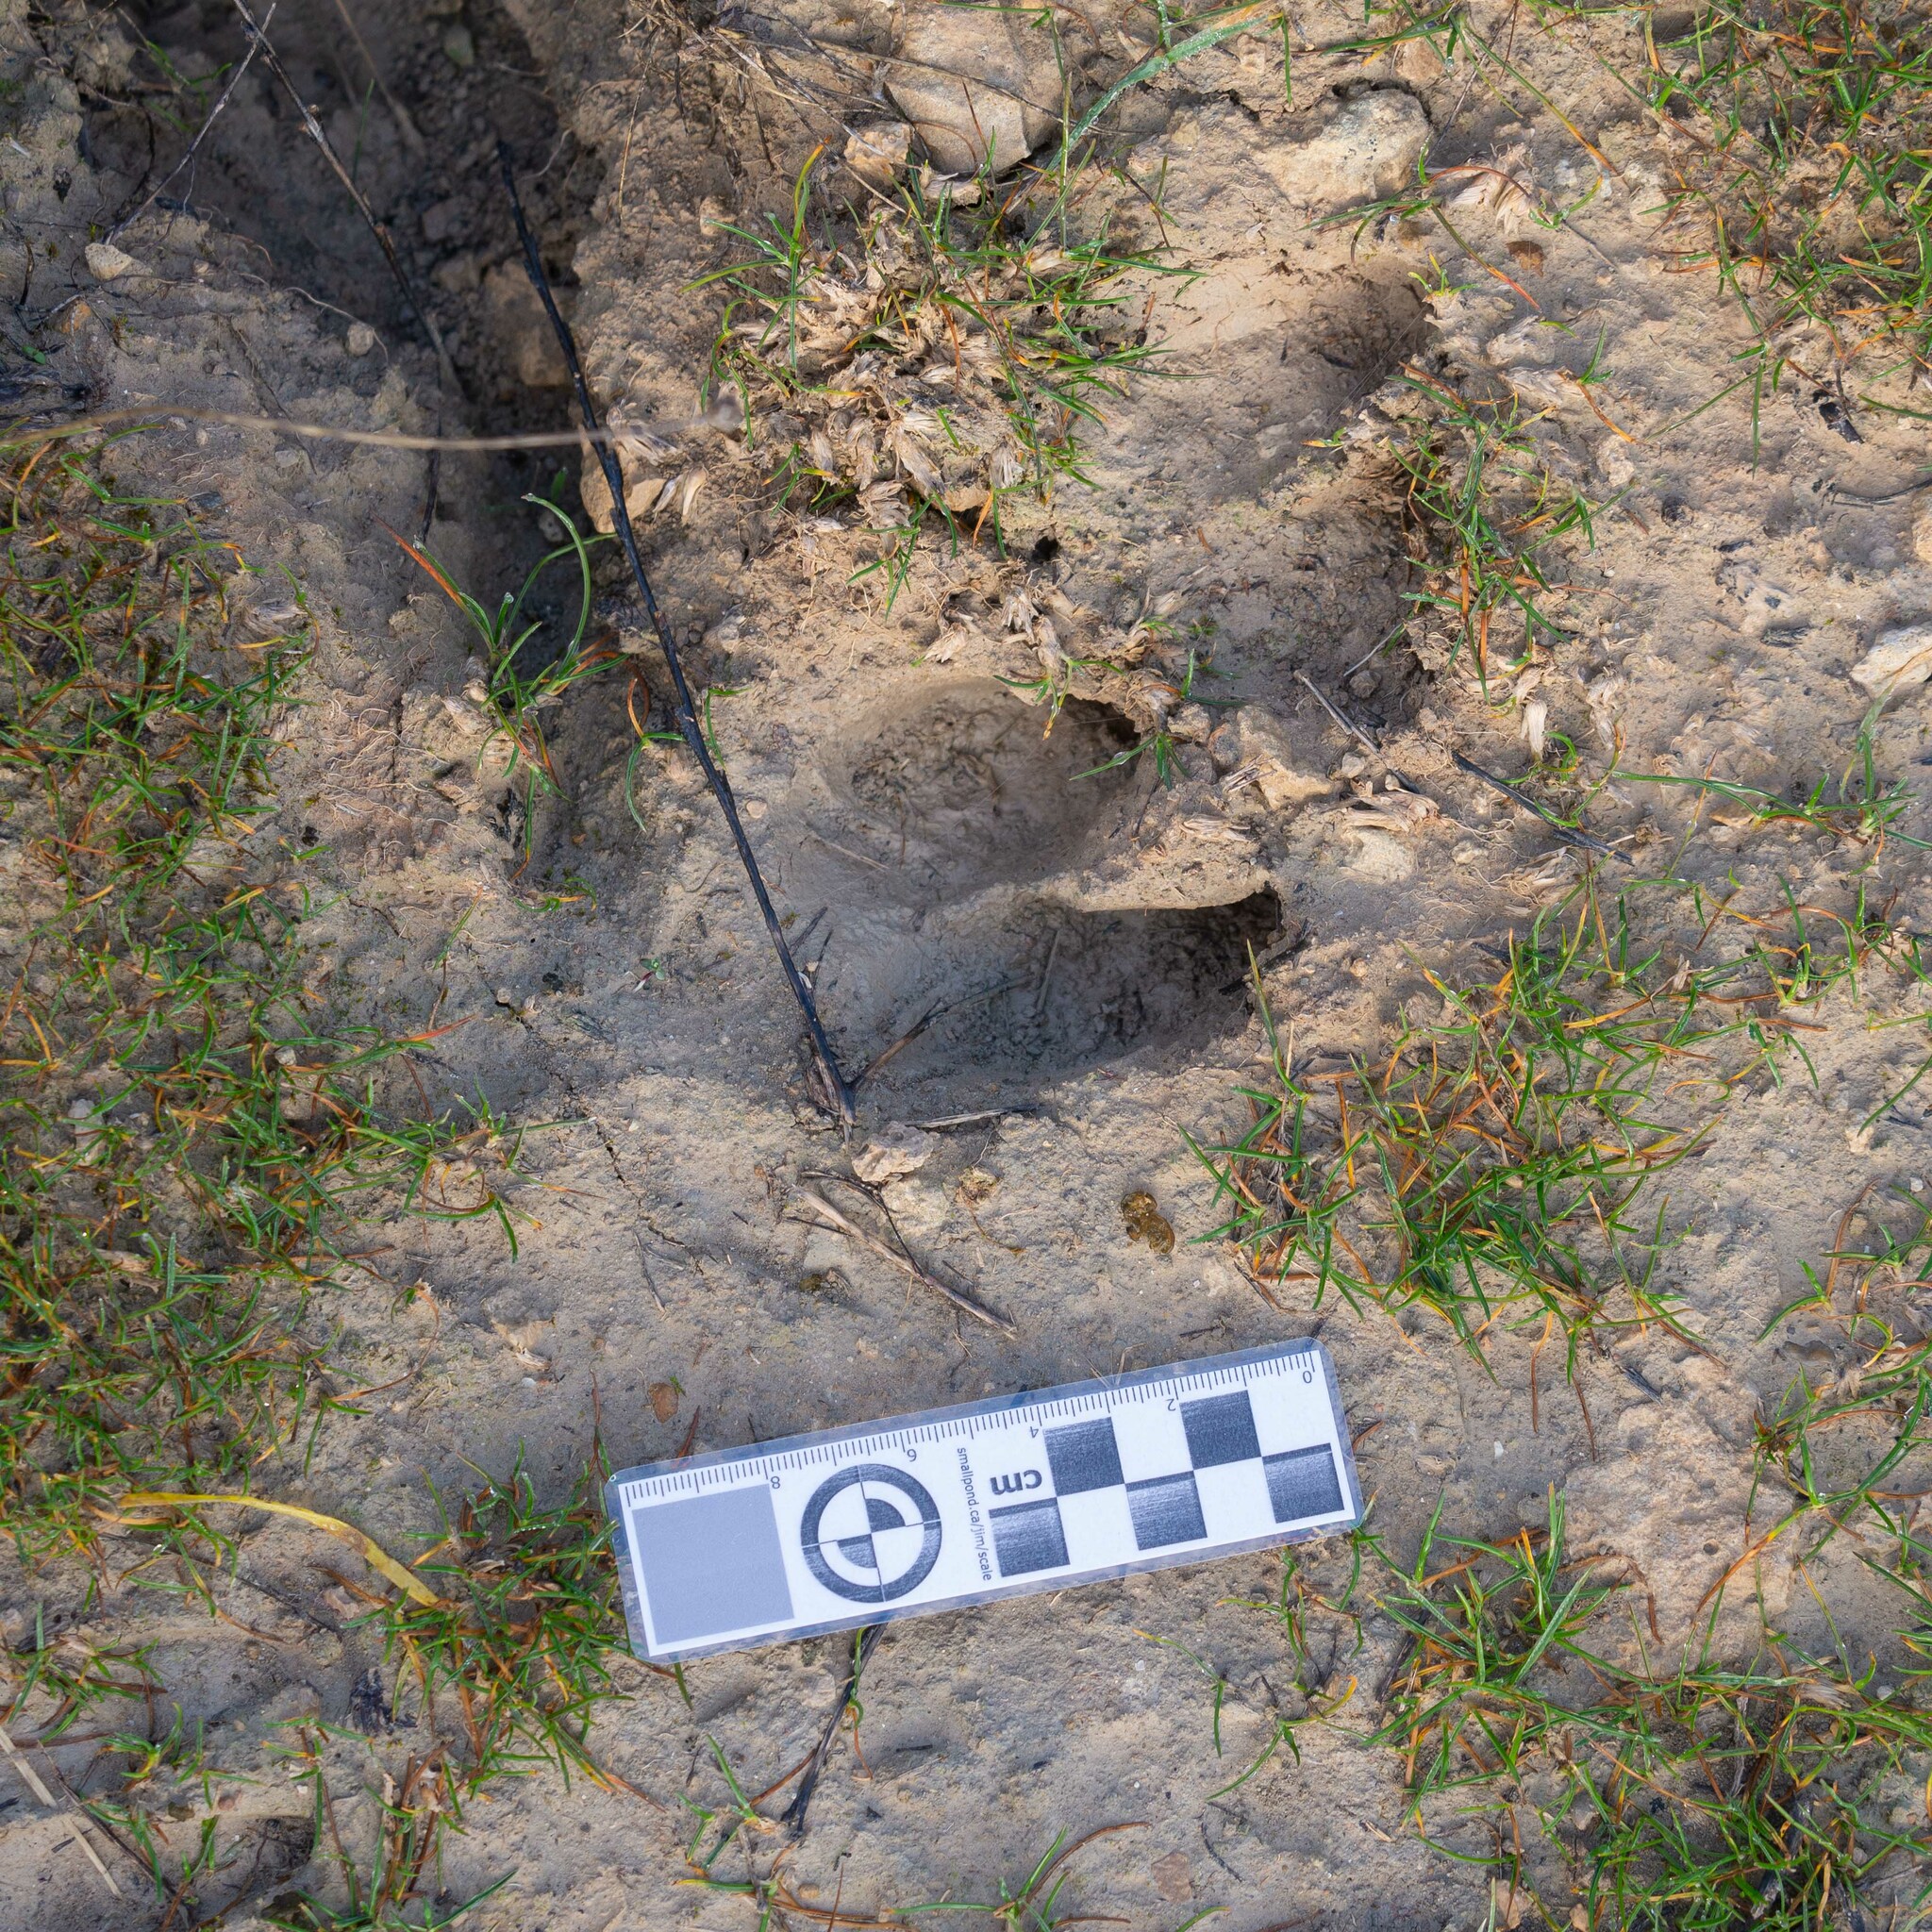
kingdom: Animalia
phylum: Chordata
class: Mammalia
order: Artiodactyla
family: Suidae
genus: Sus
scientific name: Sus scrofa
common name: Wild boar
